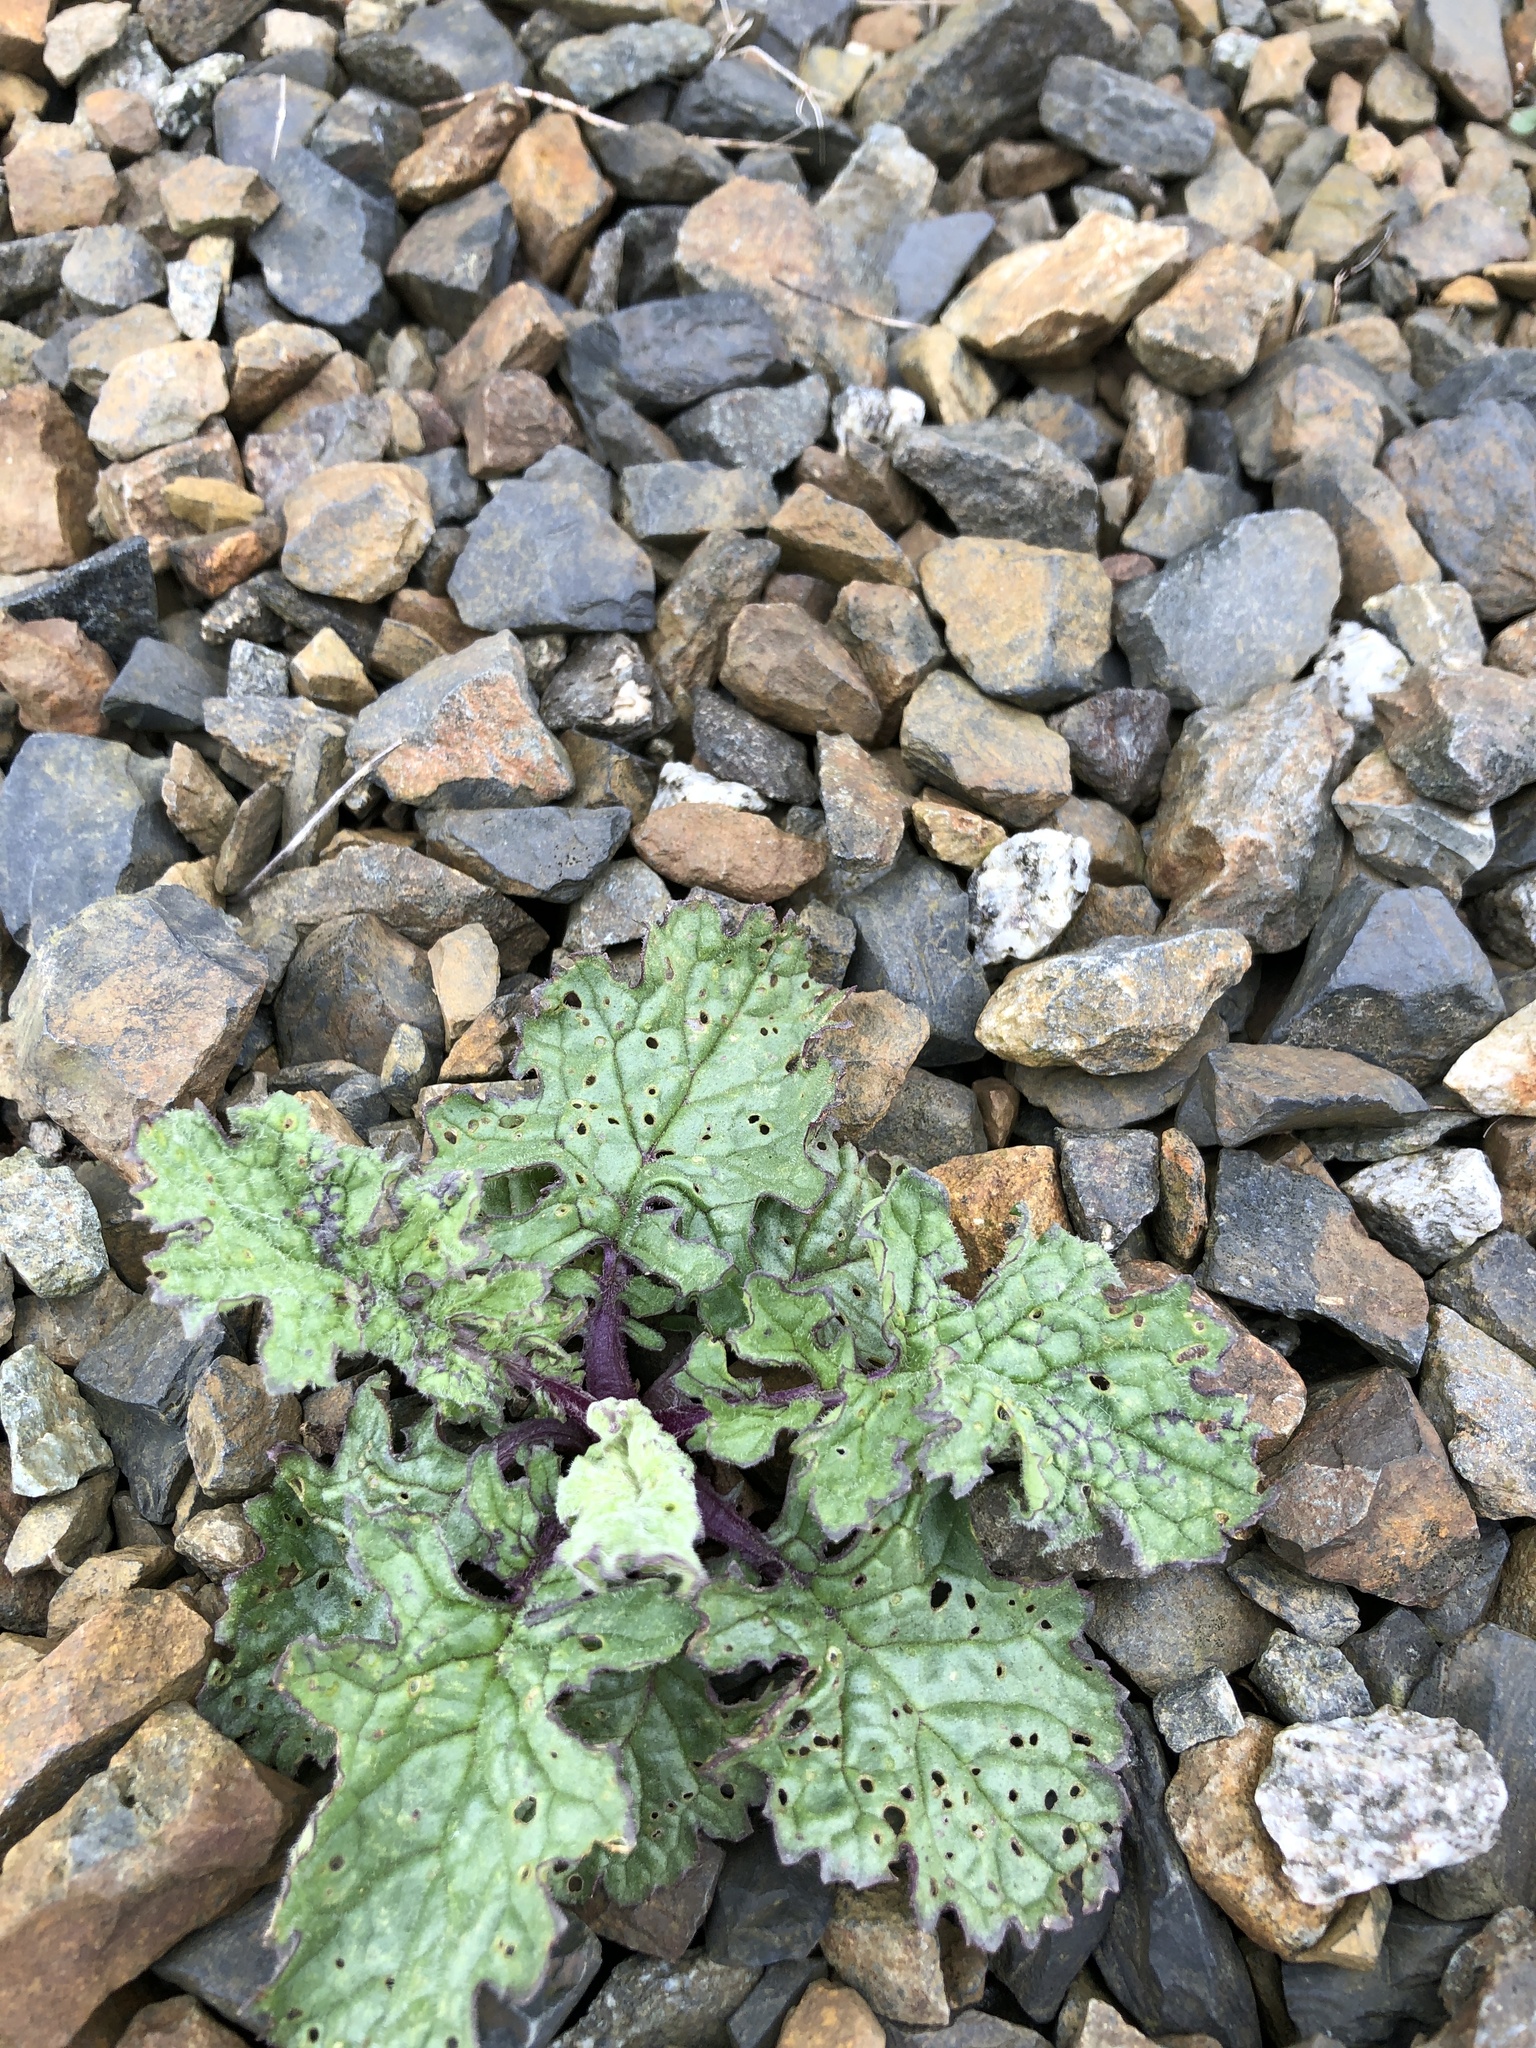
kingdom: Plantae
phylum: Tracheophyta
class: Magnoliopsida
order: Asterales
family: Asteraceae
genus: Jacobaea
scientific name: Jacobaea vulgaris
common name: Stinking willie
